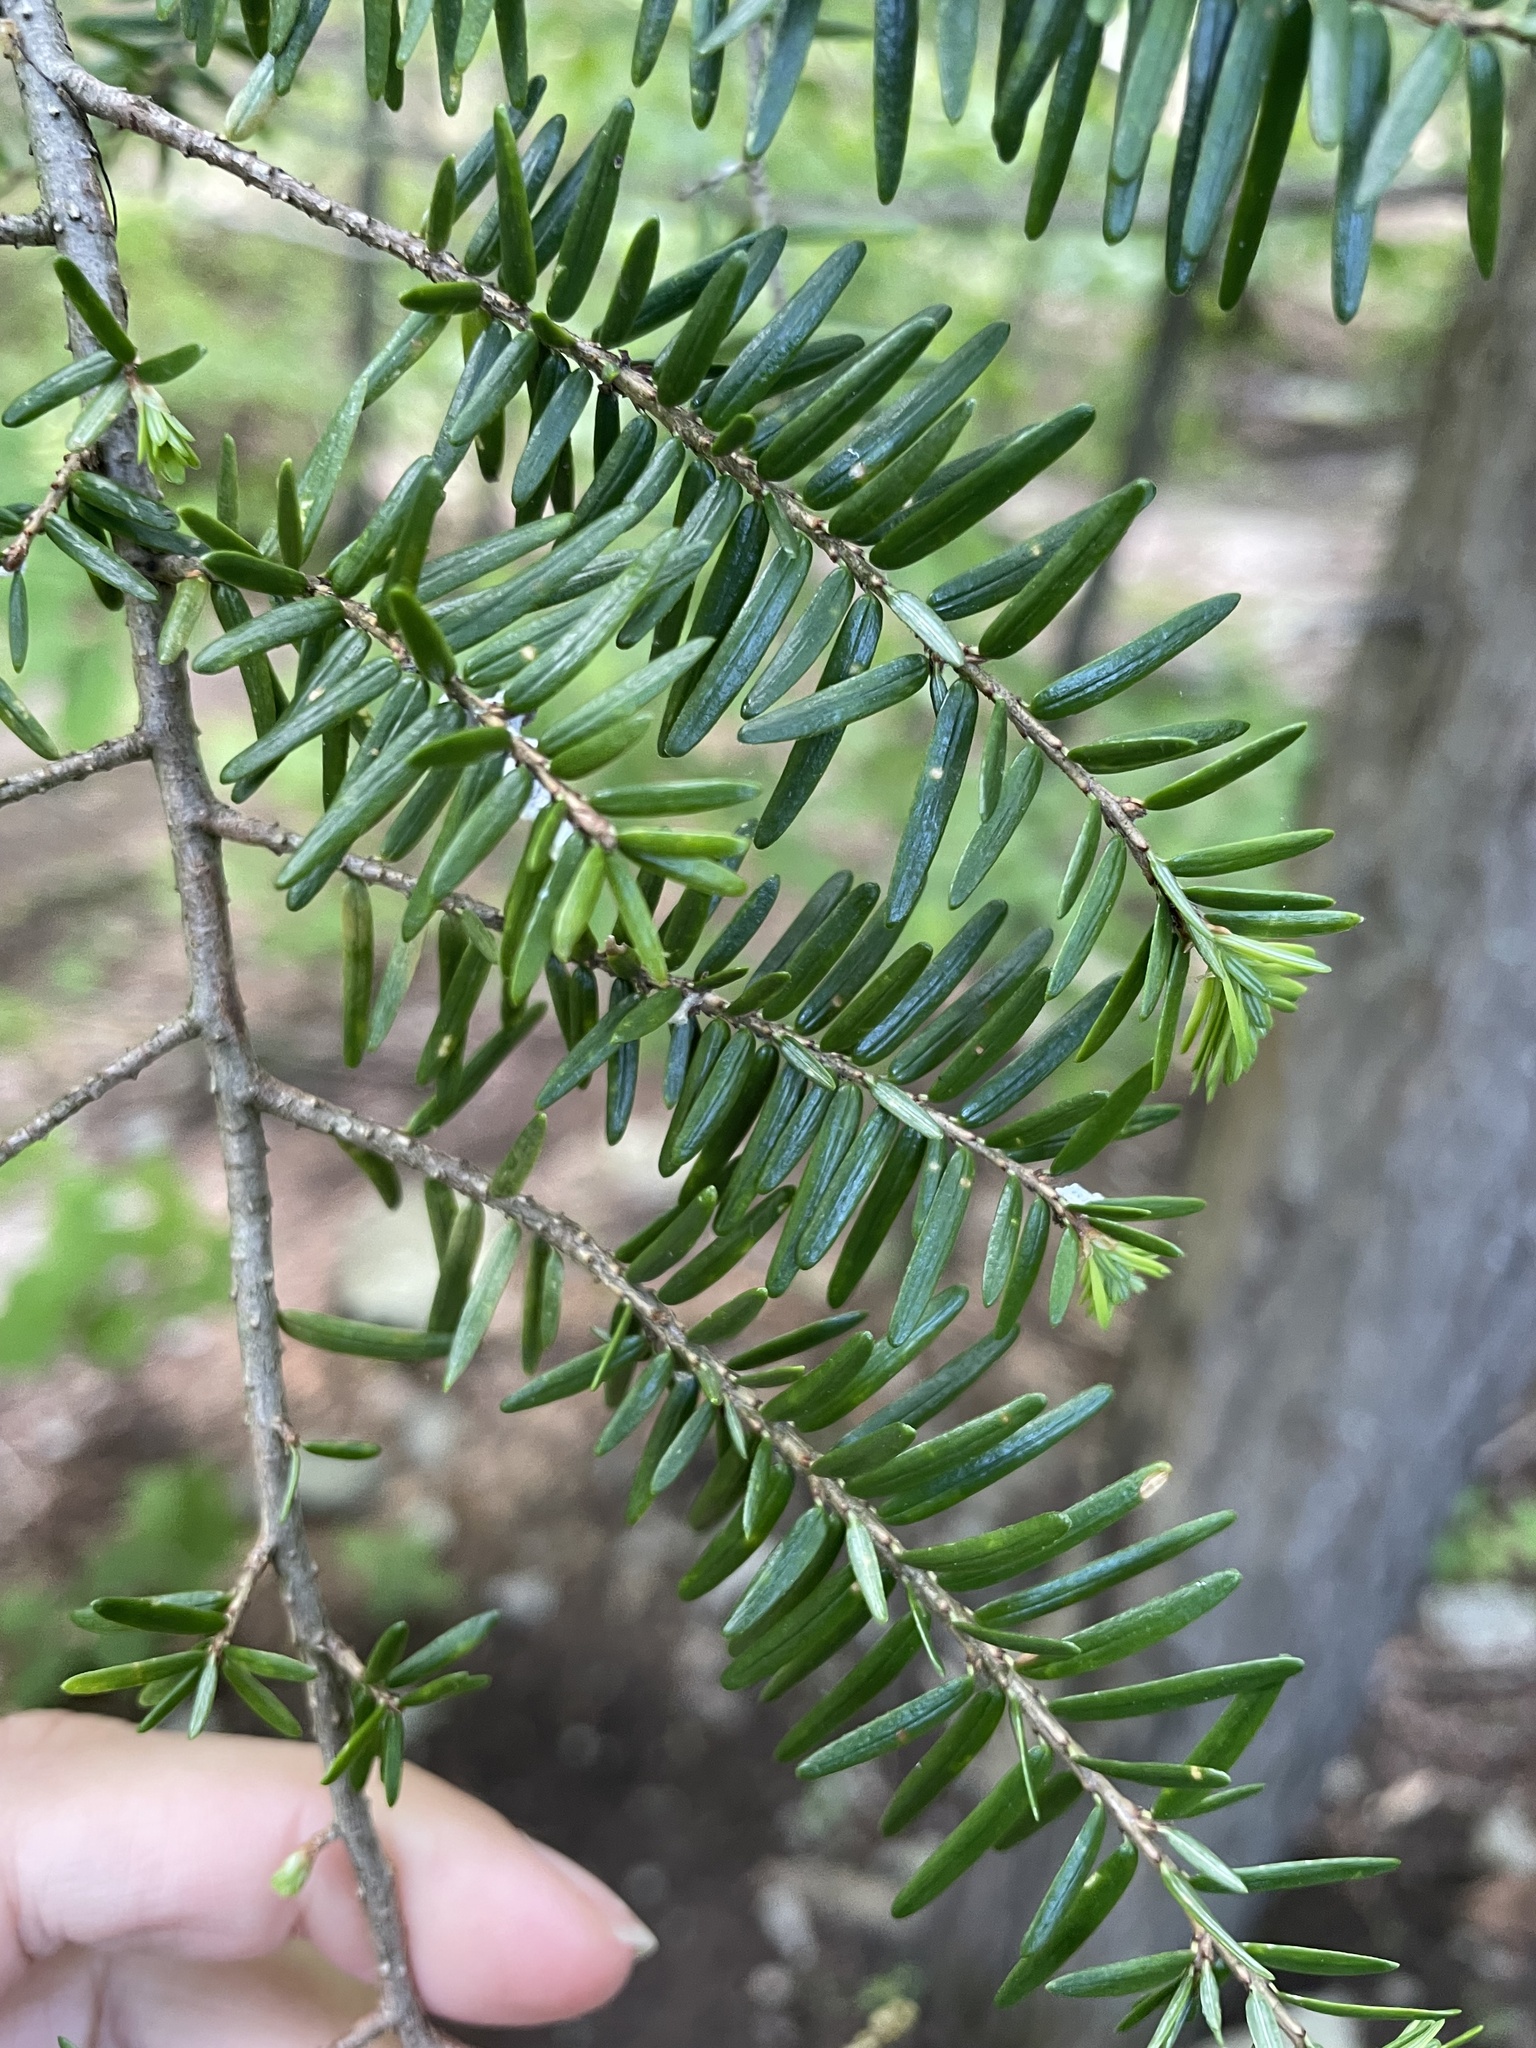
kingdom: Plantae
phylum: Tracheophyta
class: Pinopsida
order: Pinales
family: Pinaceae
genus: Tsuga
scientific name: Tsuga canadensis
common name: Eastern hemlock
